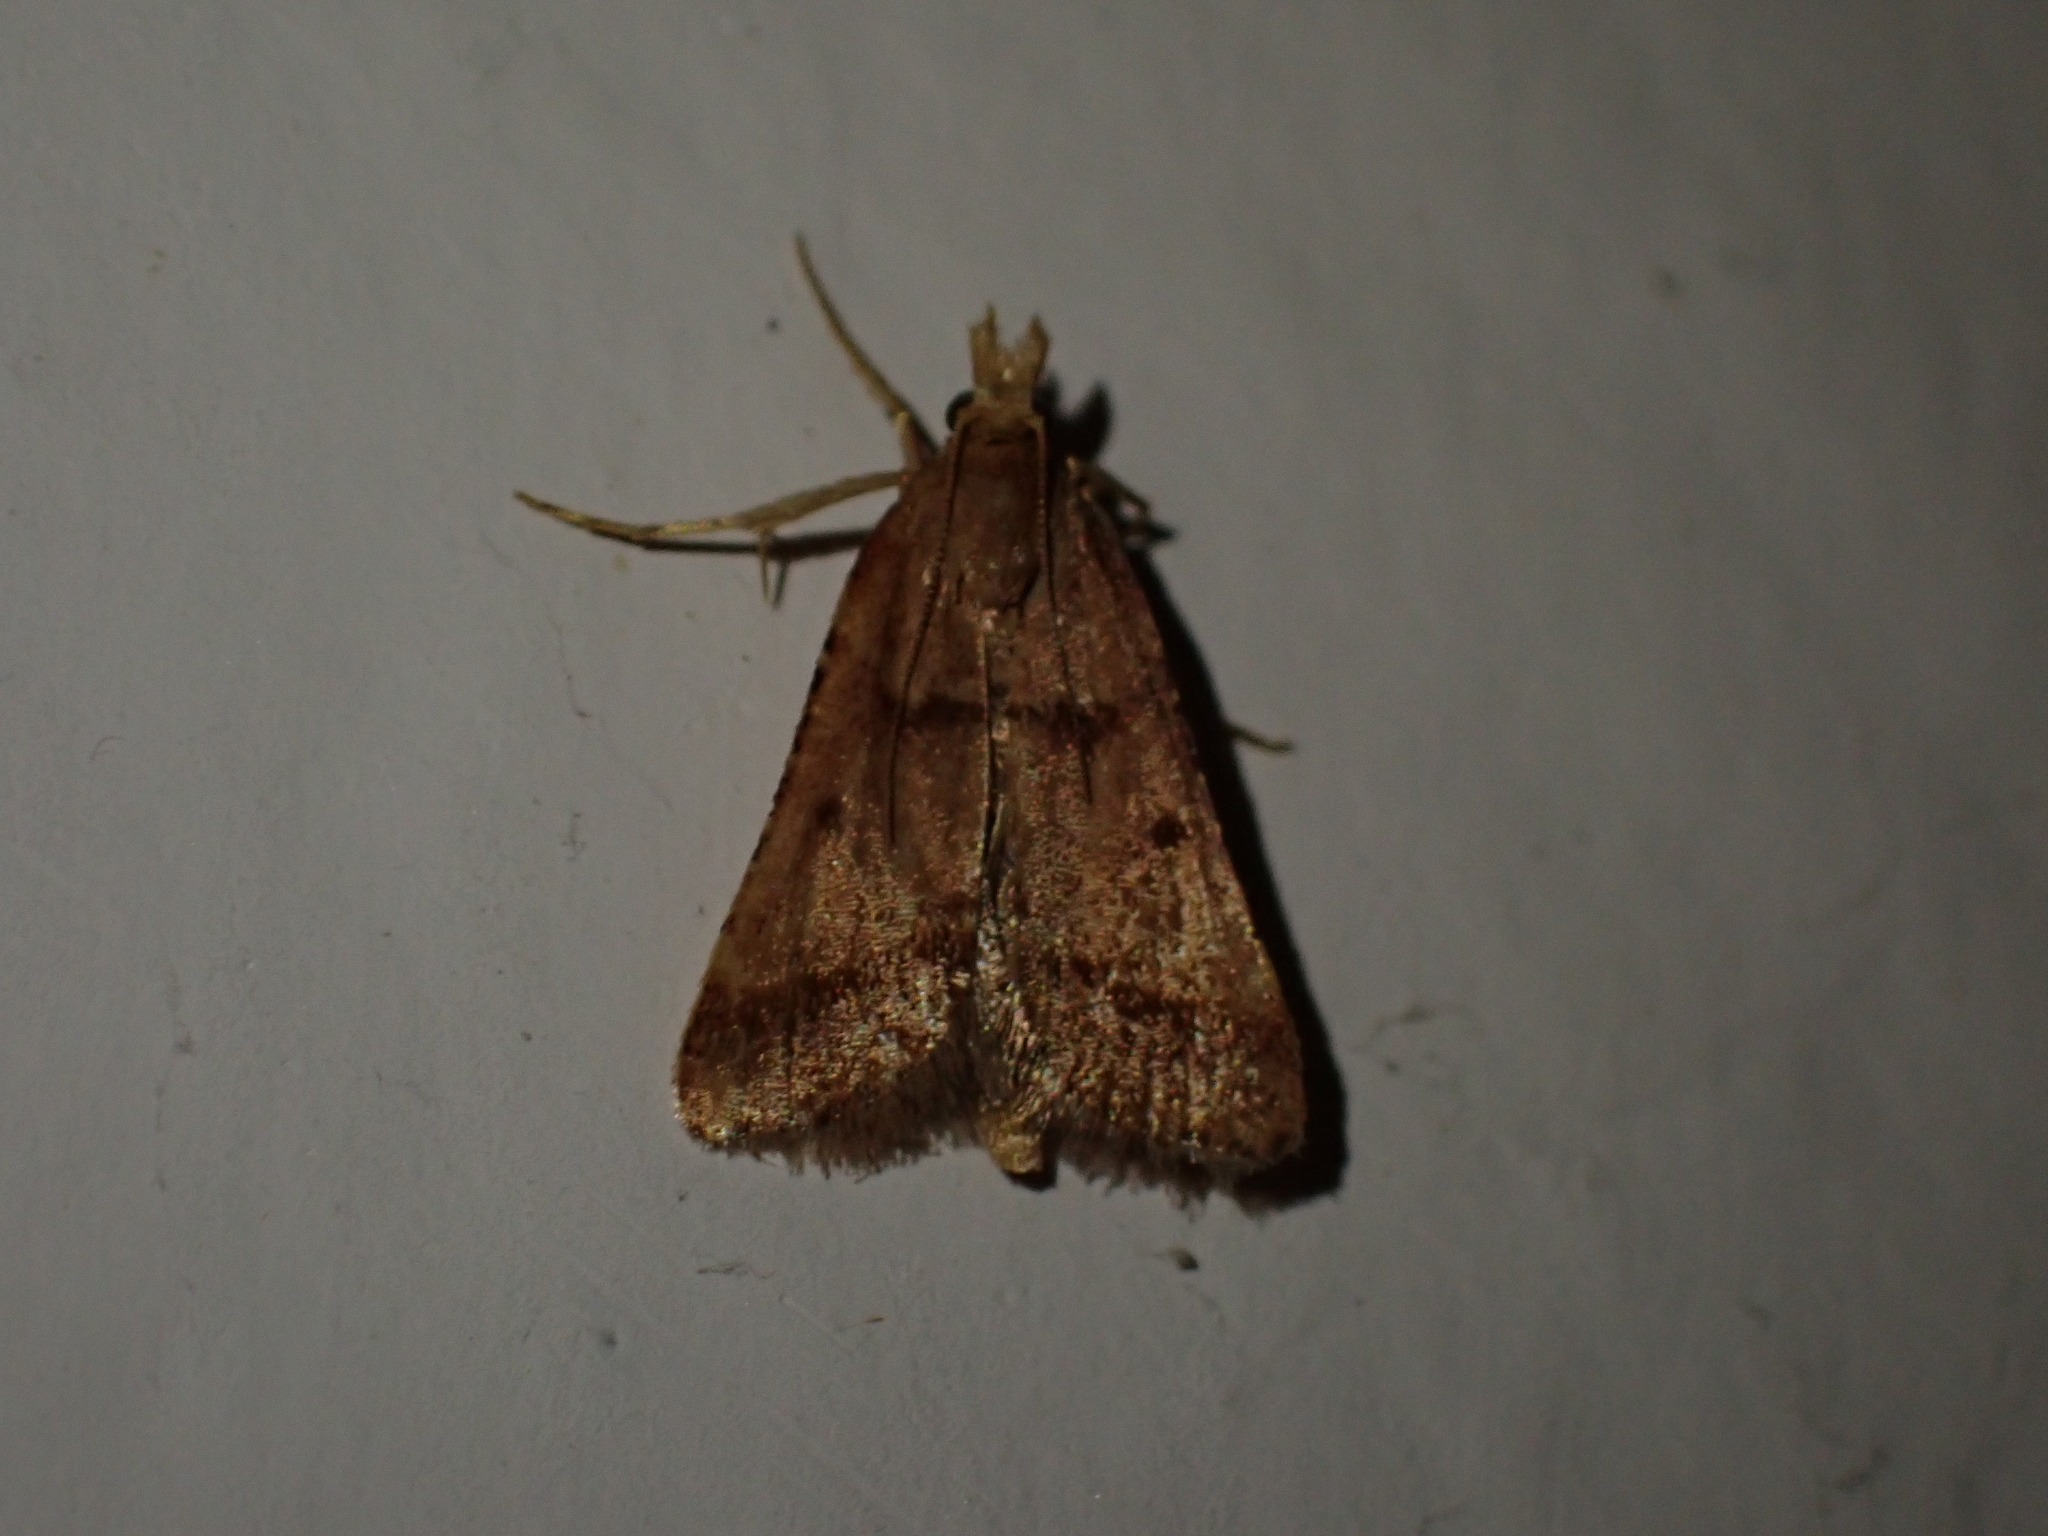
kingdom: Animalia
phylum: Arthropoda
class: Insecta
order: Lepidoptera
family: Pyralidae
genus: Stemmatophora
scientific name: Stemmatophora brunnealis
